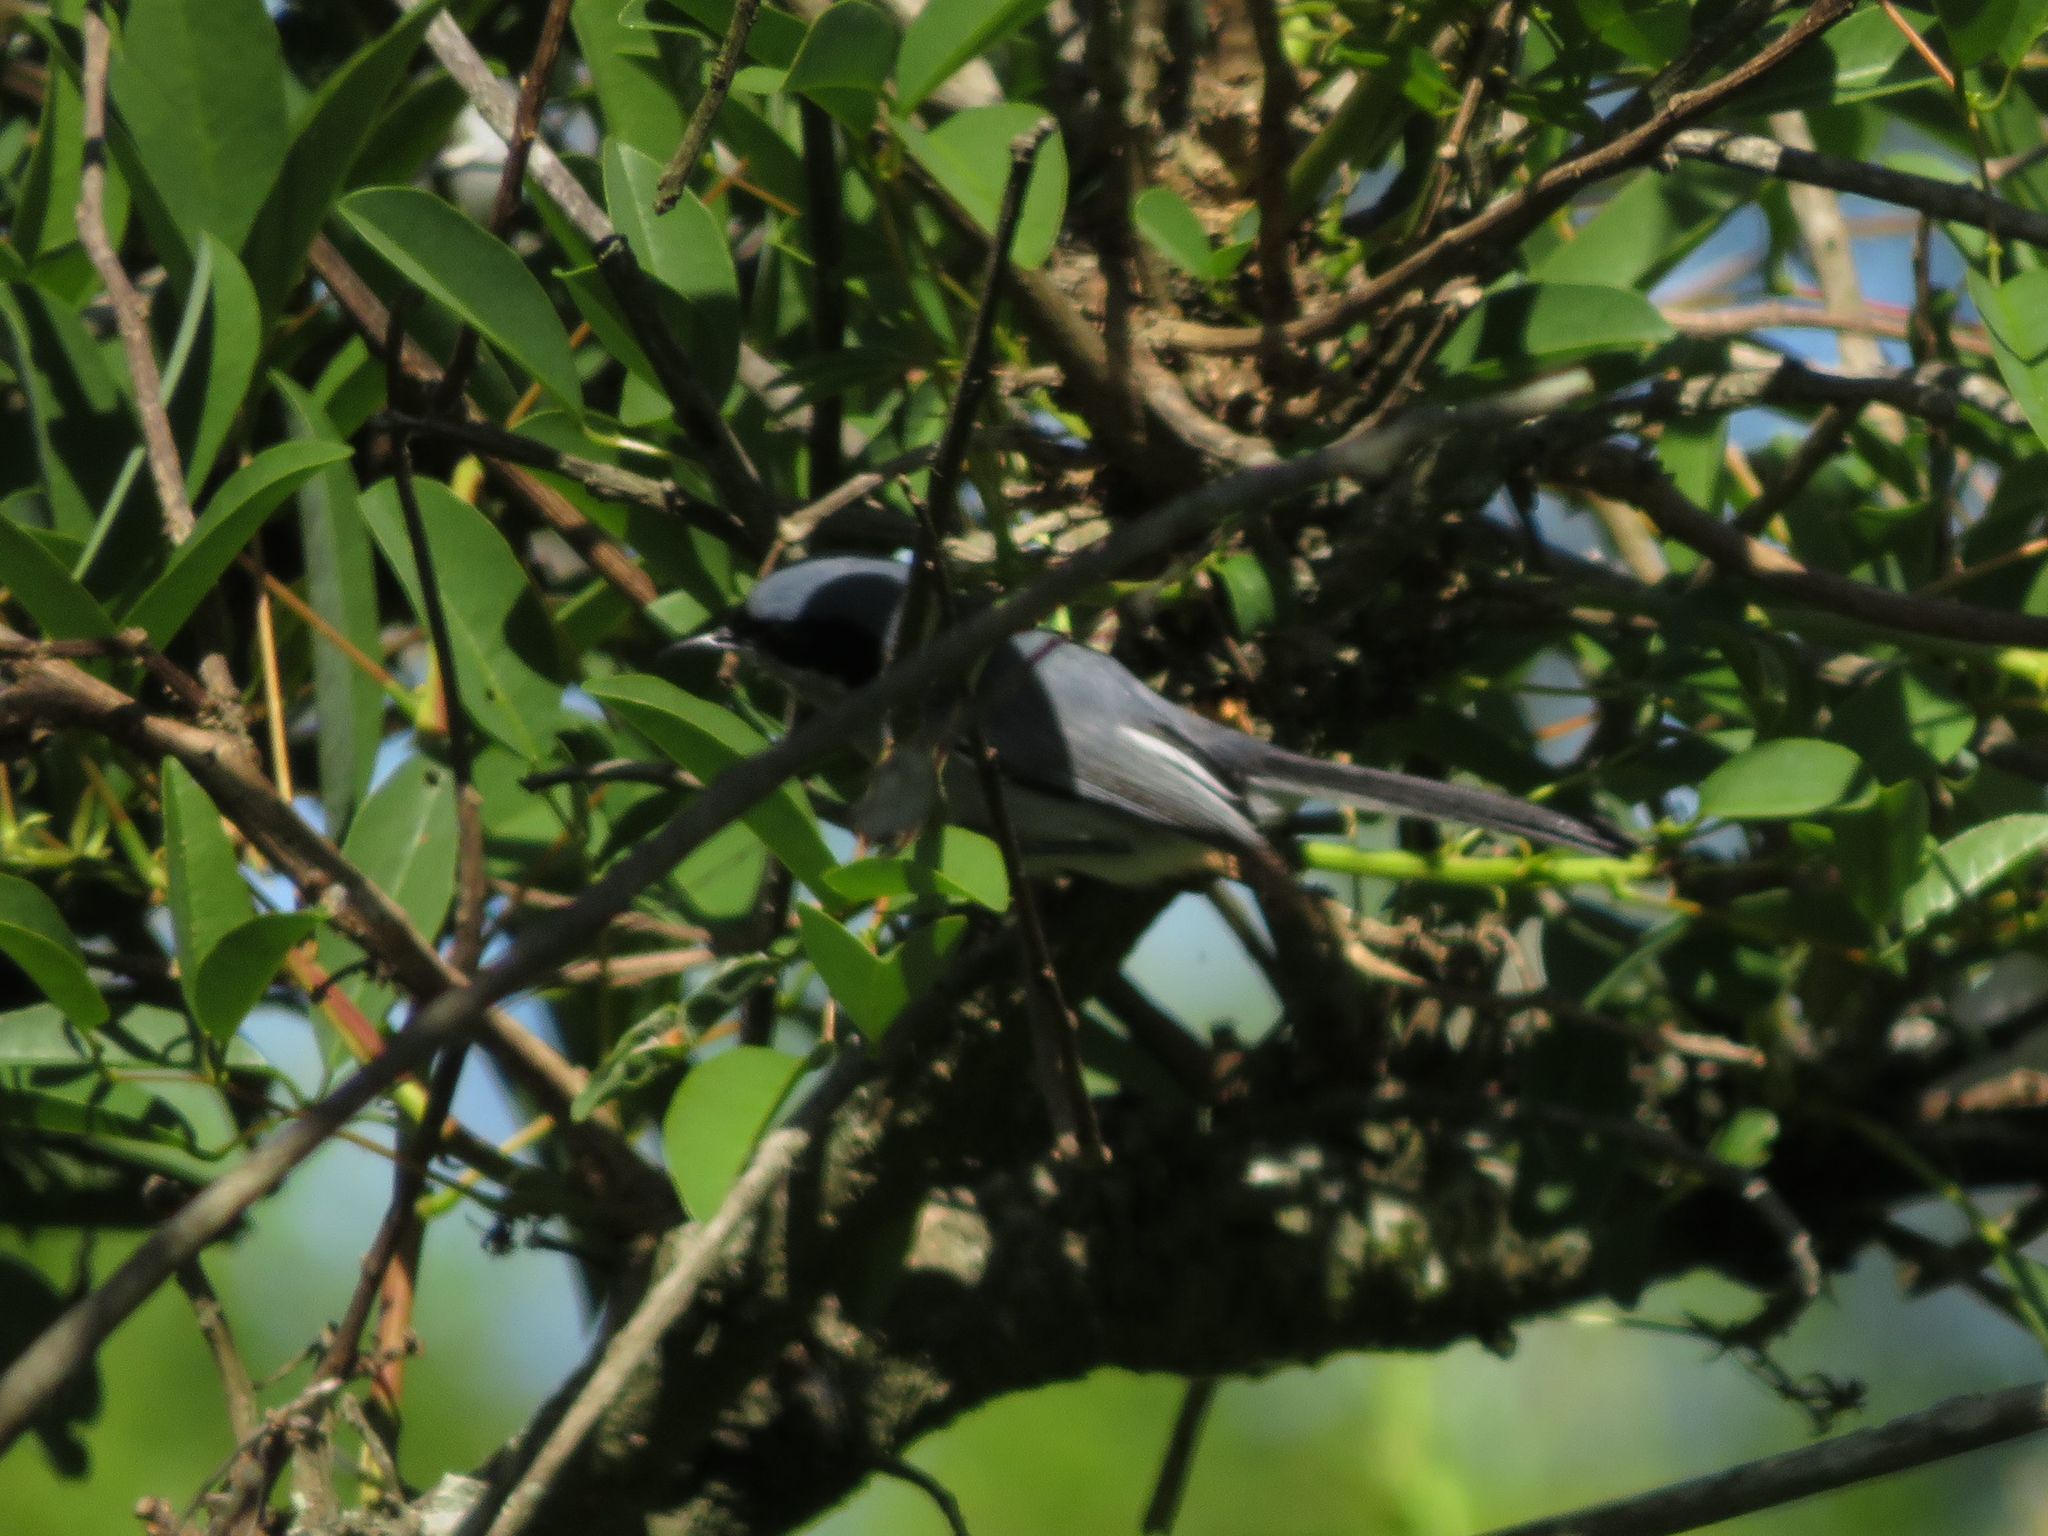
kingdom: Animalia
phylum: Chordata
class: Aves
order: Passeriformes
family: Polioptilidae
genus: Polioptila
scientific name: Polioptila dumicola
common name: Masked gnatcatcher
